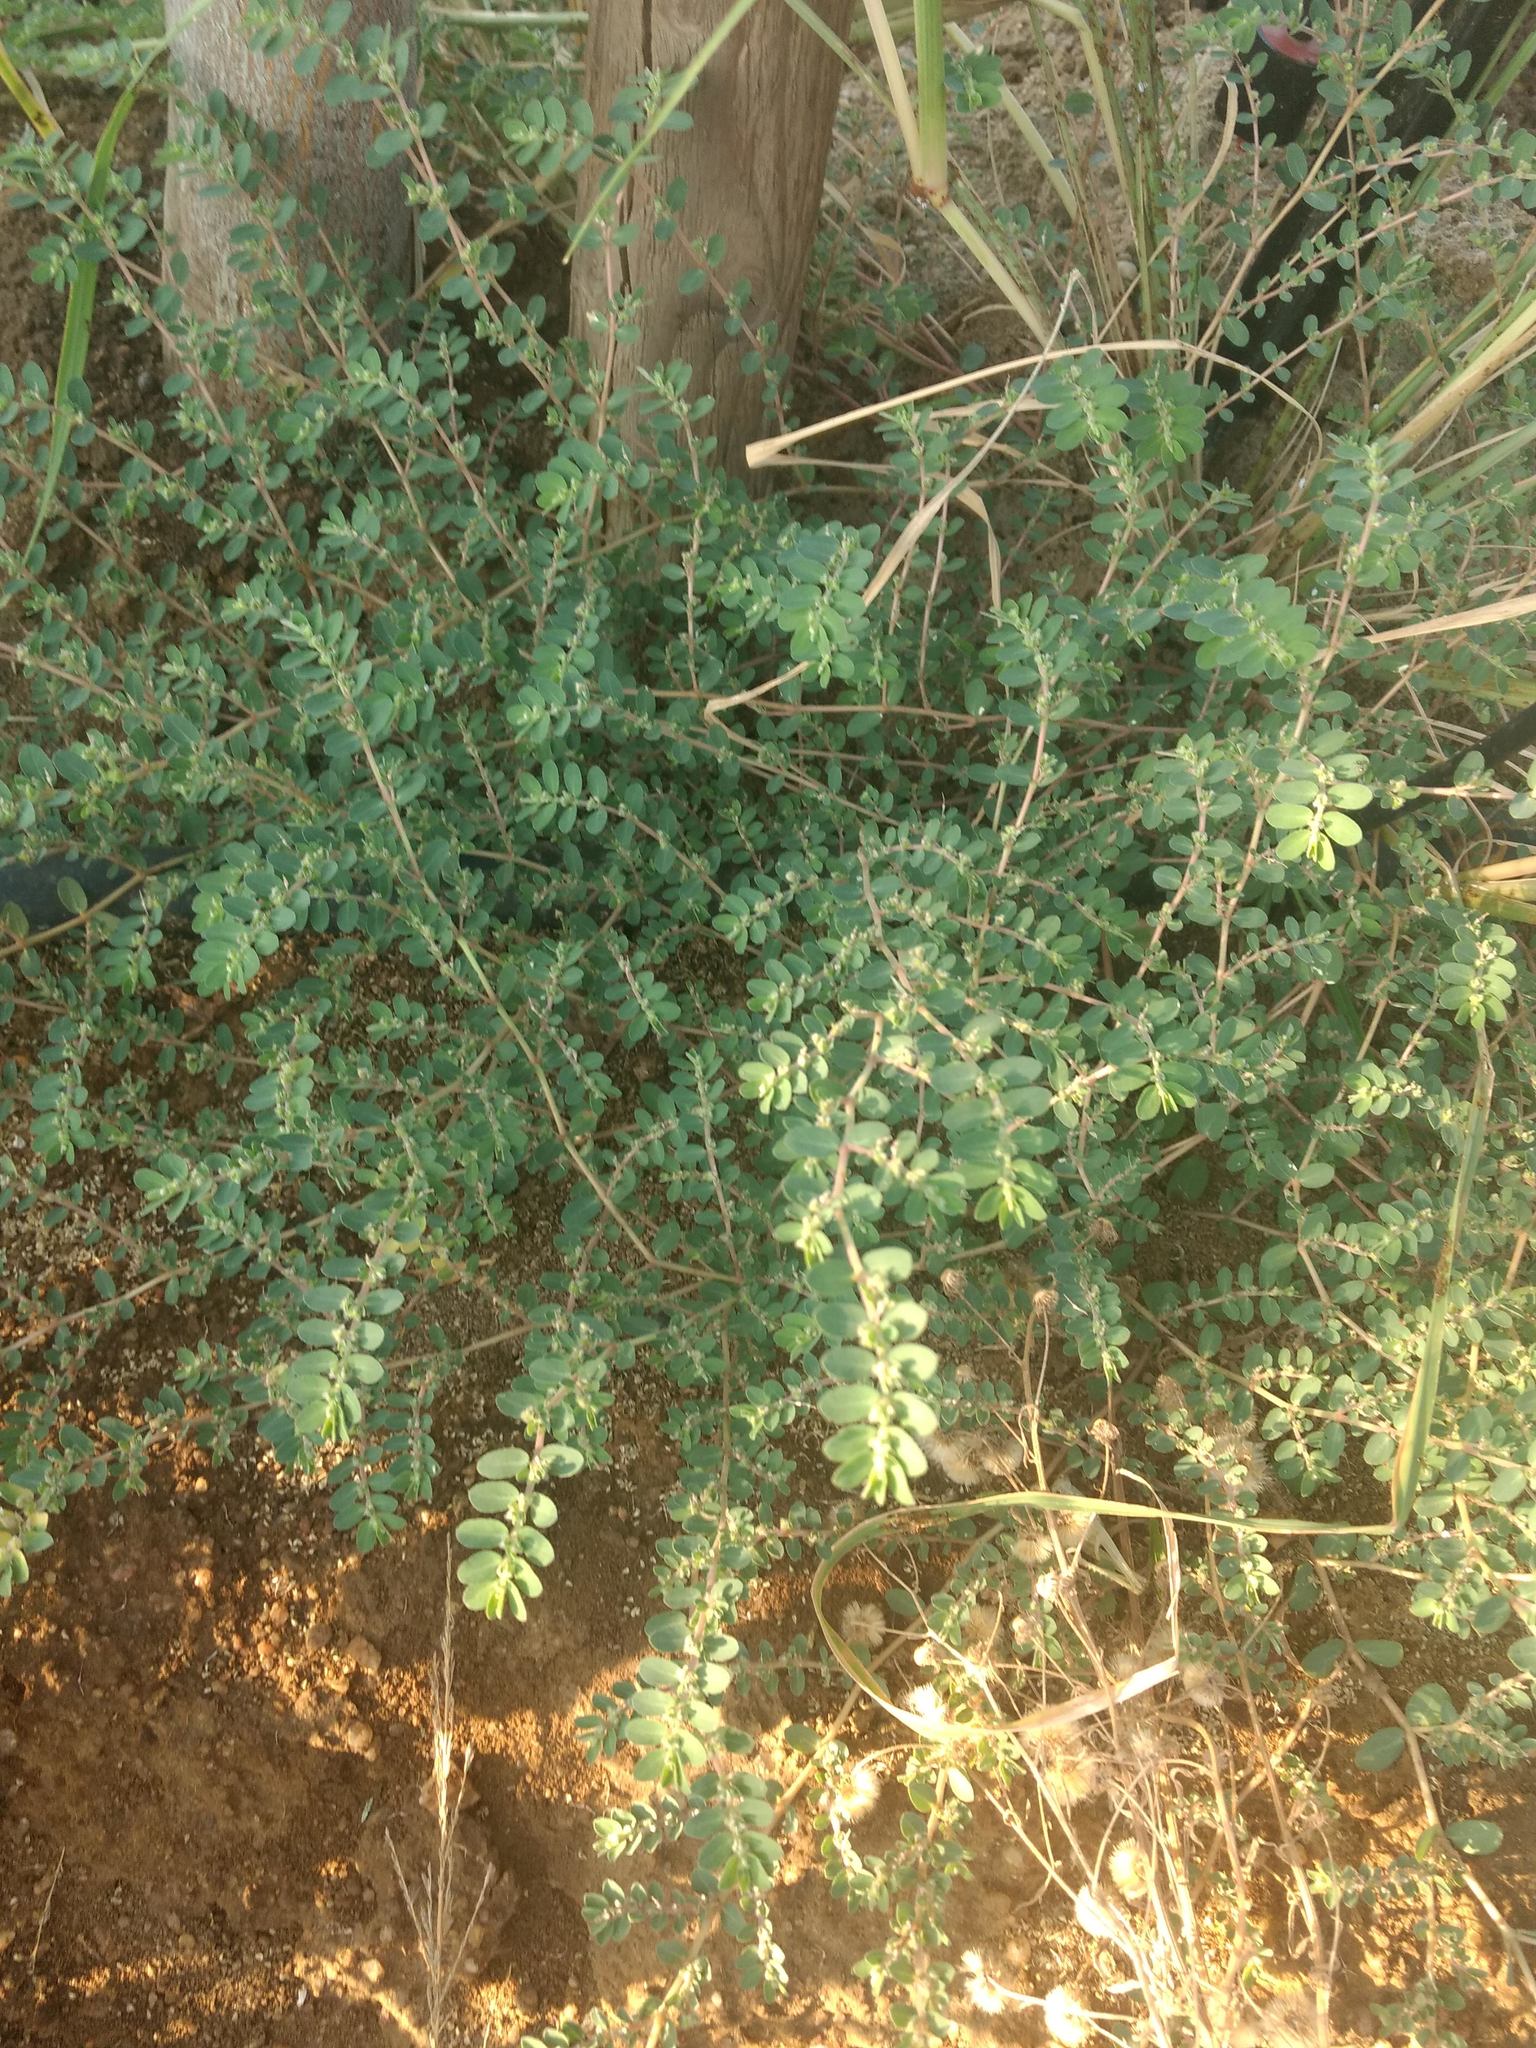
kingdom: Plantae
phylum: Tracheophyta
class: Magnoliopsida
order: Malpighiales
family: Euphorbiaceae
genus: Euphorbia
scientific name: Euphorbia prostrata
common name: Prostrate sandmat
